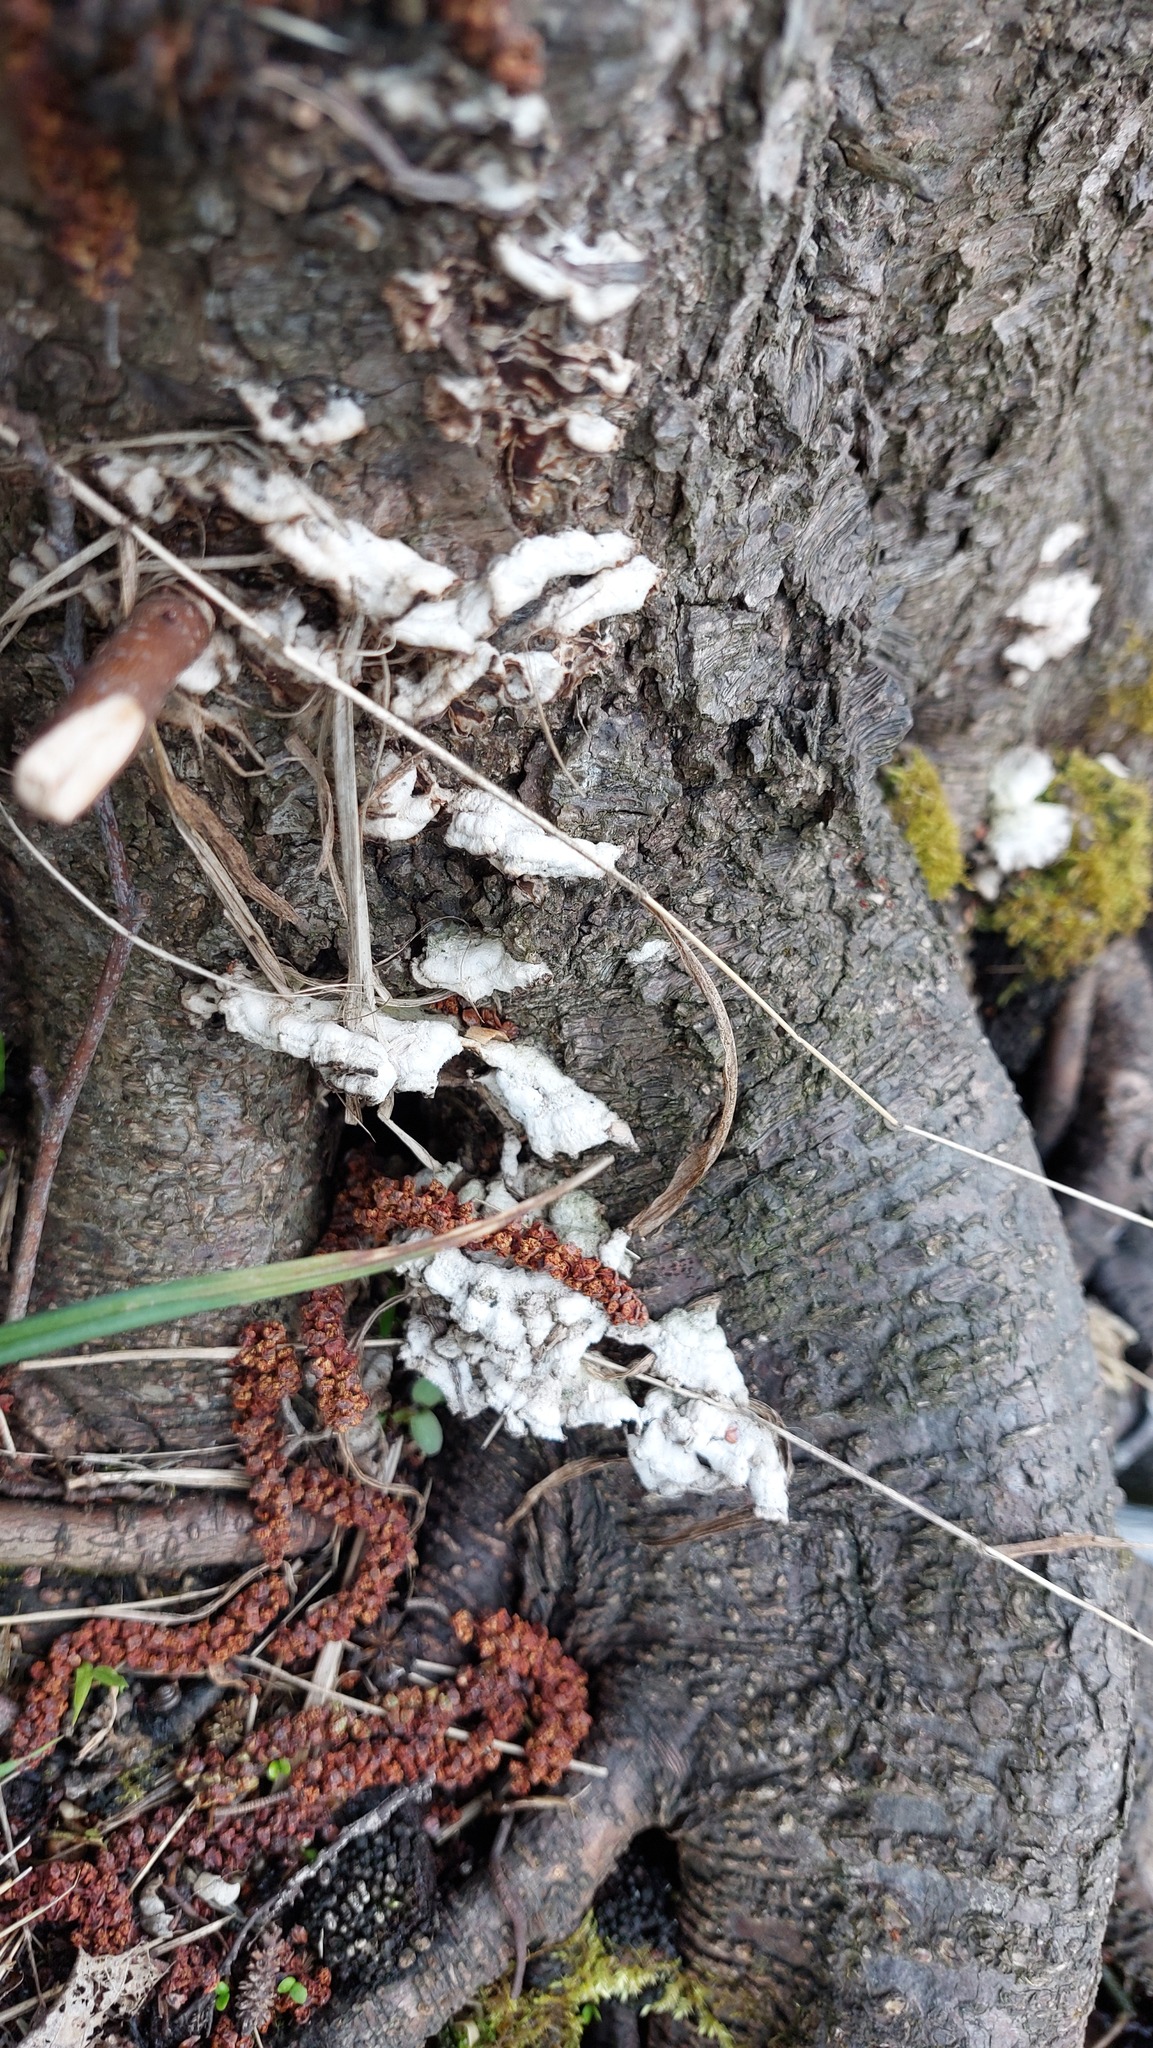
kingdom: Fungi
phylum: Basidiomycota
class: Agaricomycetes
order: Agaricales
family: Cyphellaceae
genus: Chondrostereum
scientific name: Chondrostereum purpureum
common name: Silver leaf disease
